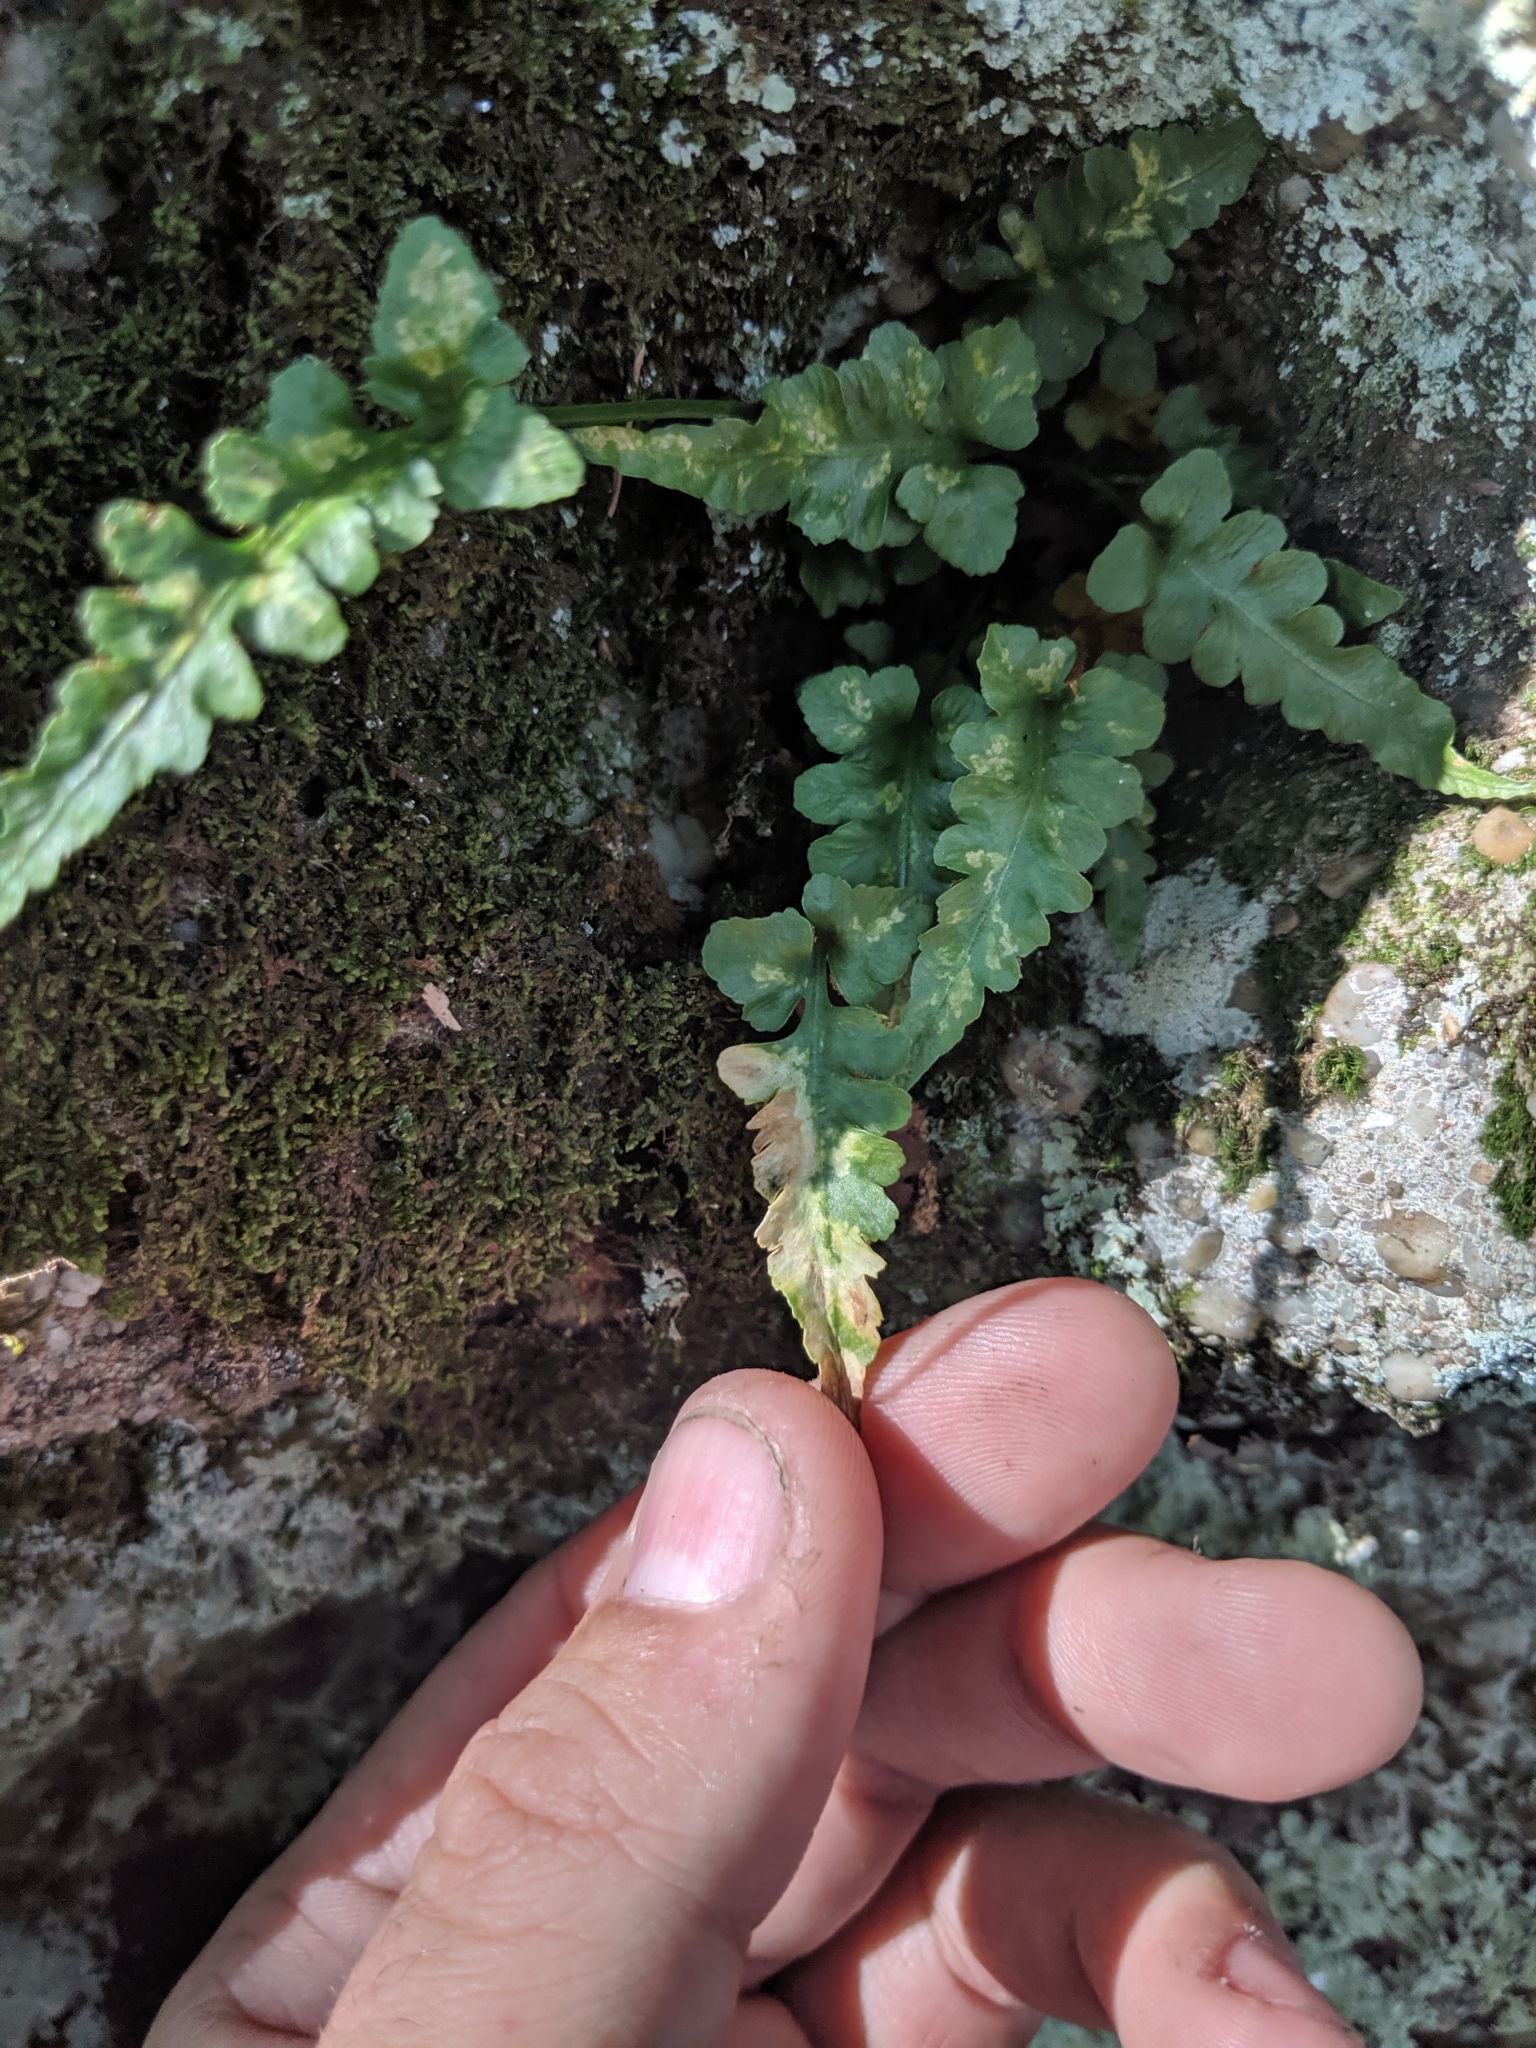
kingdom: Plantae
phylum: Tracheophyta
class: Polypodiopsida
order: Polypodiales
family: Aspleniaceae
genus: Asplenium
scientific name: Asplenium pinnatifidum
